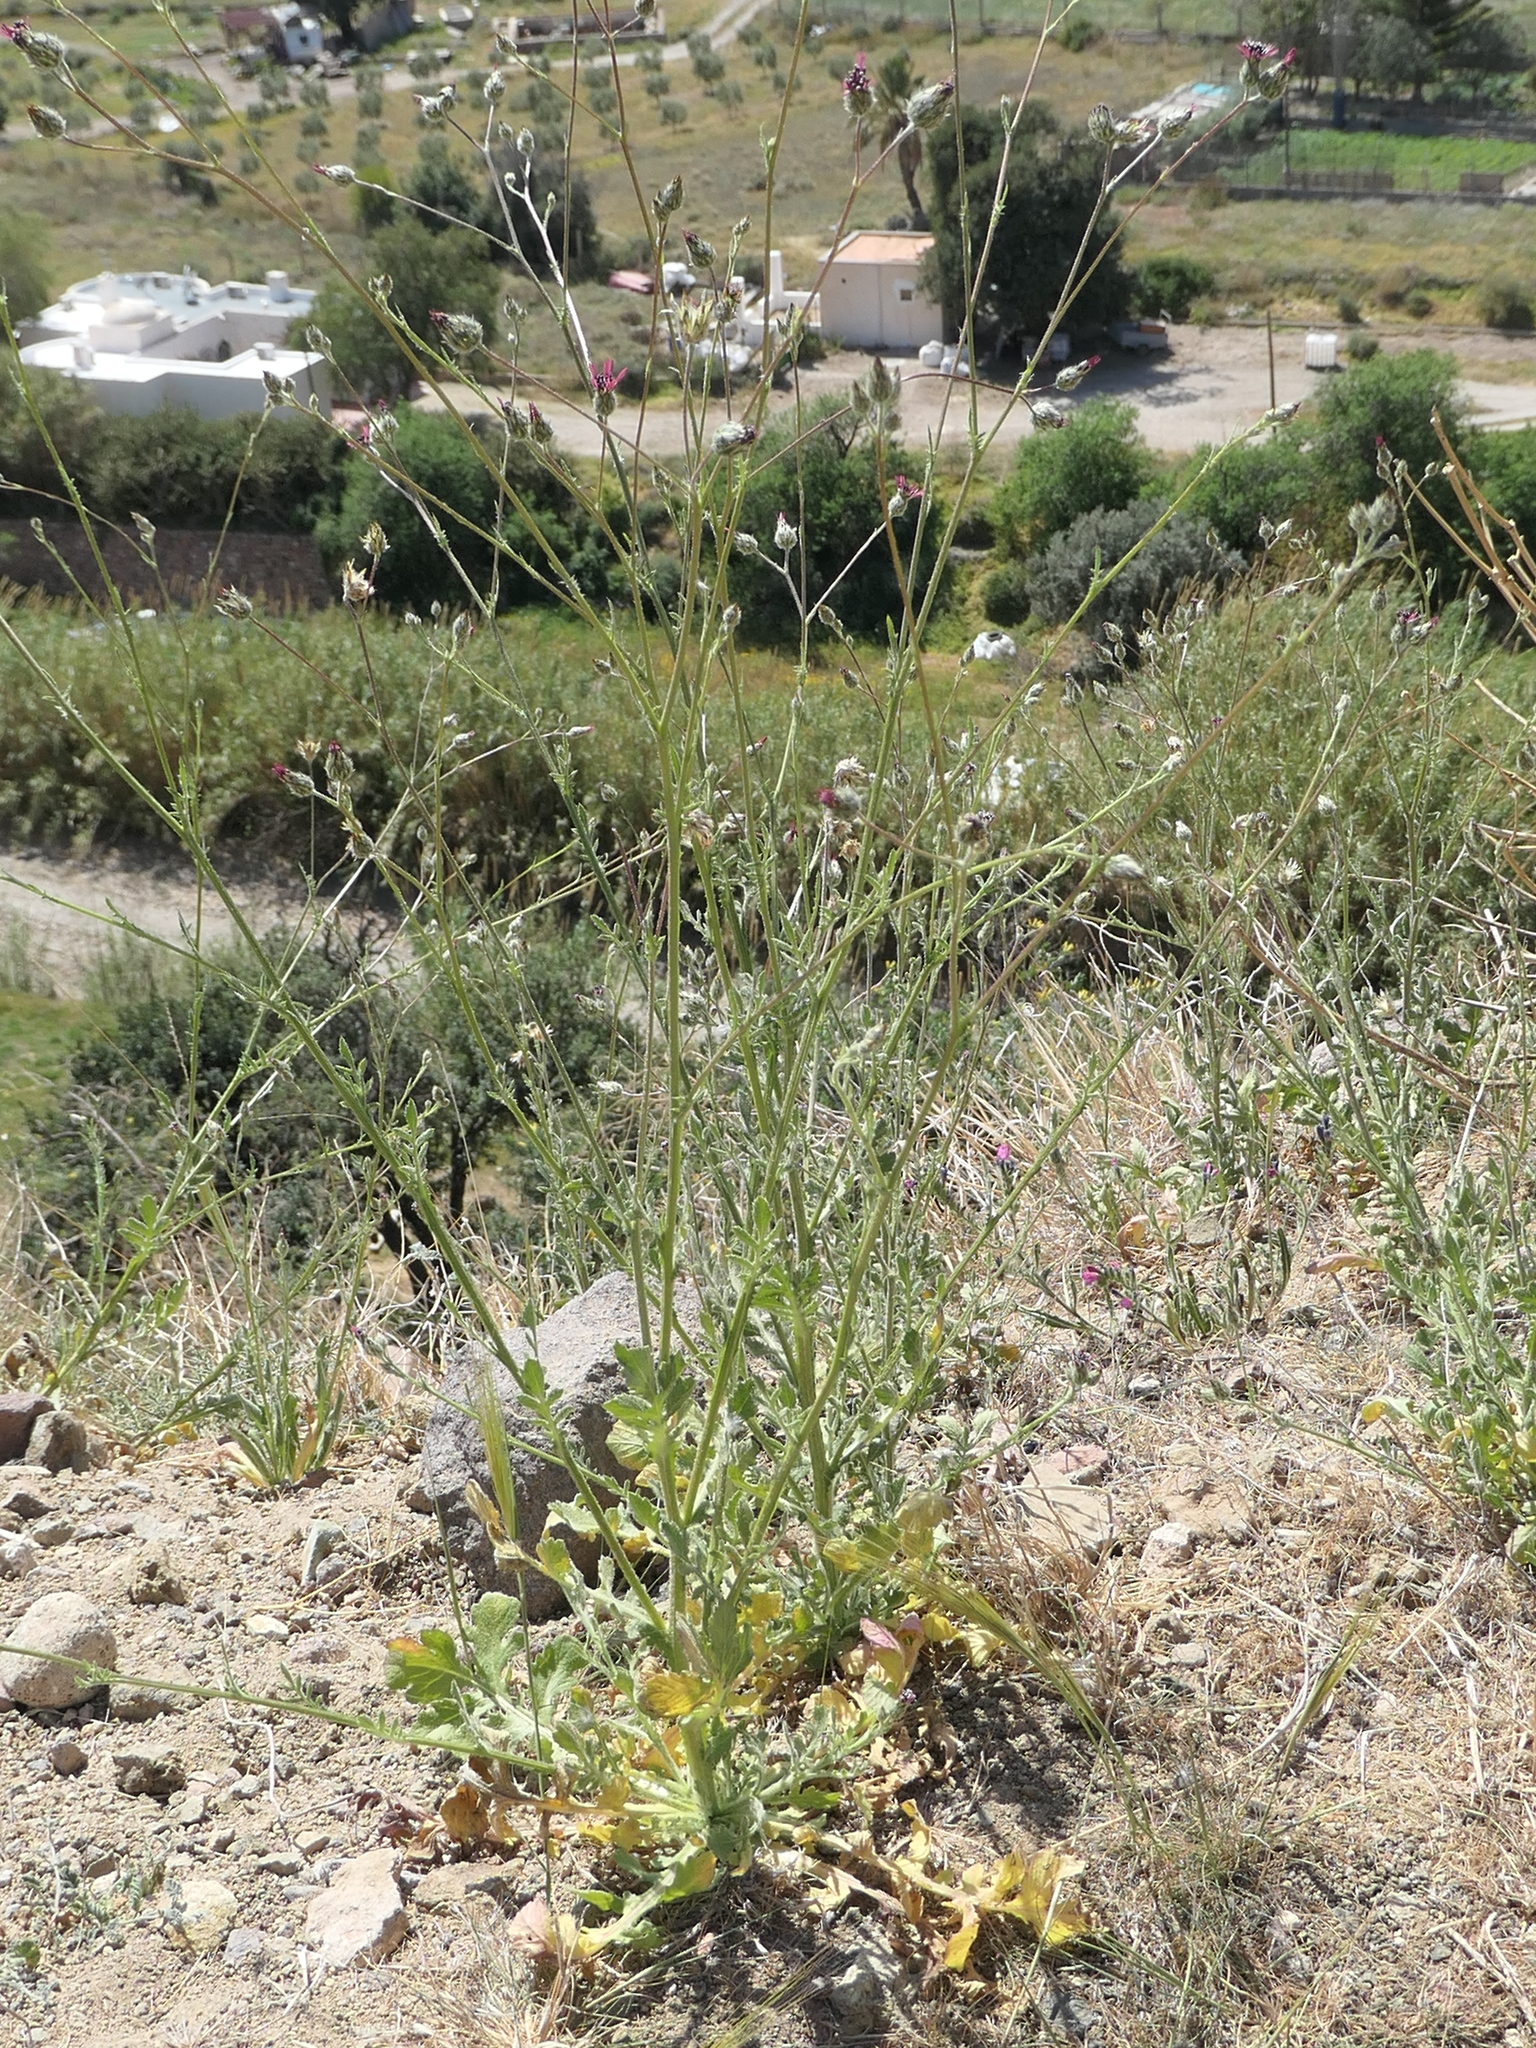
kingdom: Plantae
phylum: Tracheophyta
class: Magnoliopsida
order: Asterales
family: Asteraceae
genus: Volutaria
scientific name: Volutaria tubuliflora
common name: Desert knapweed
